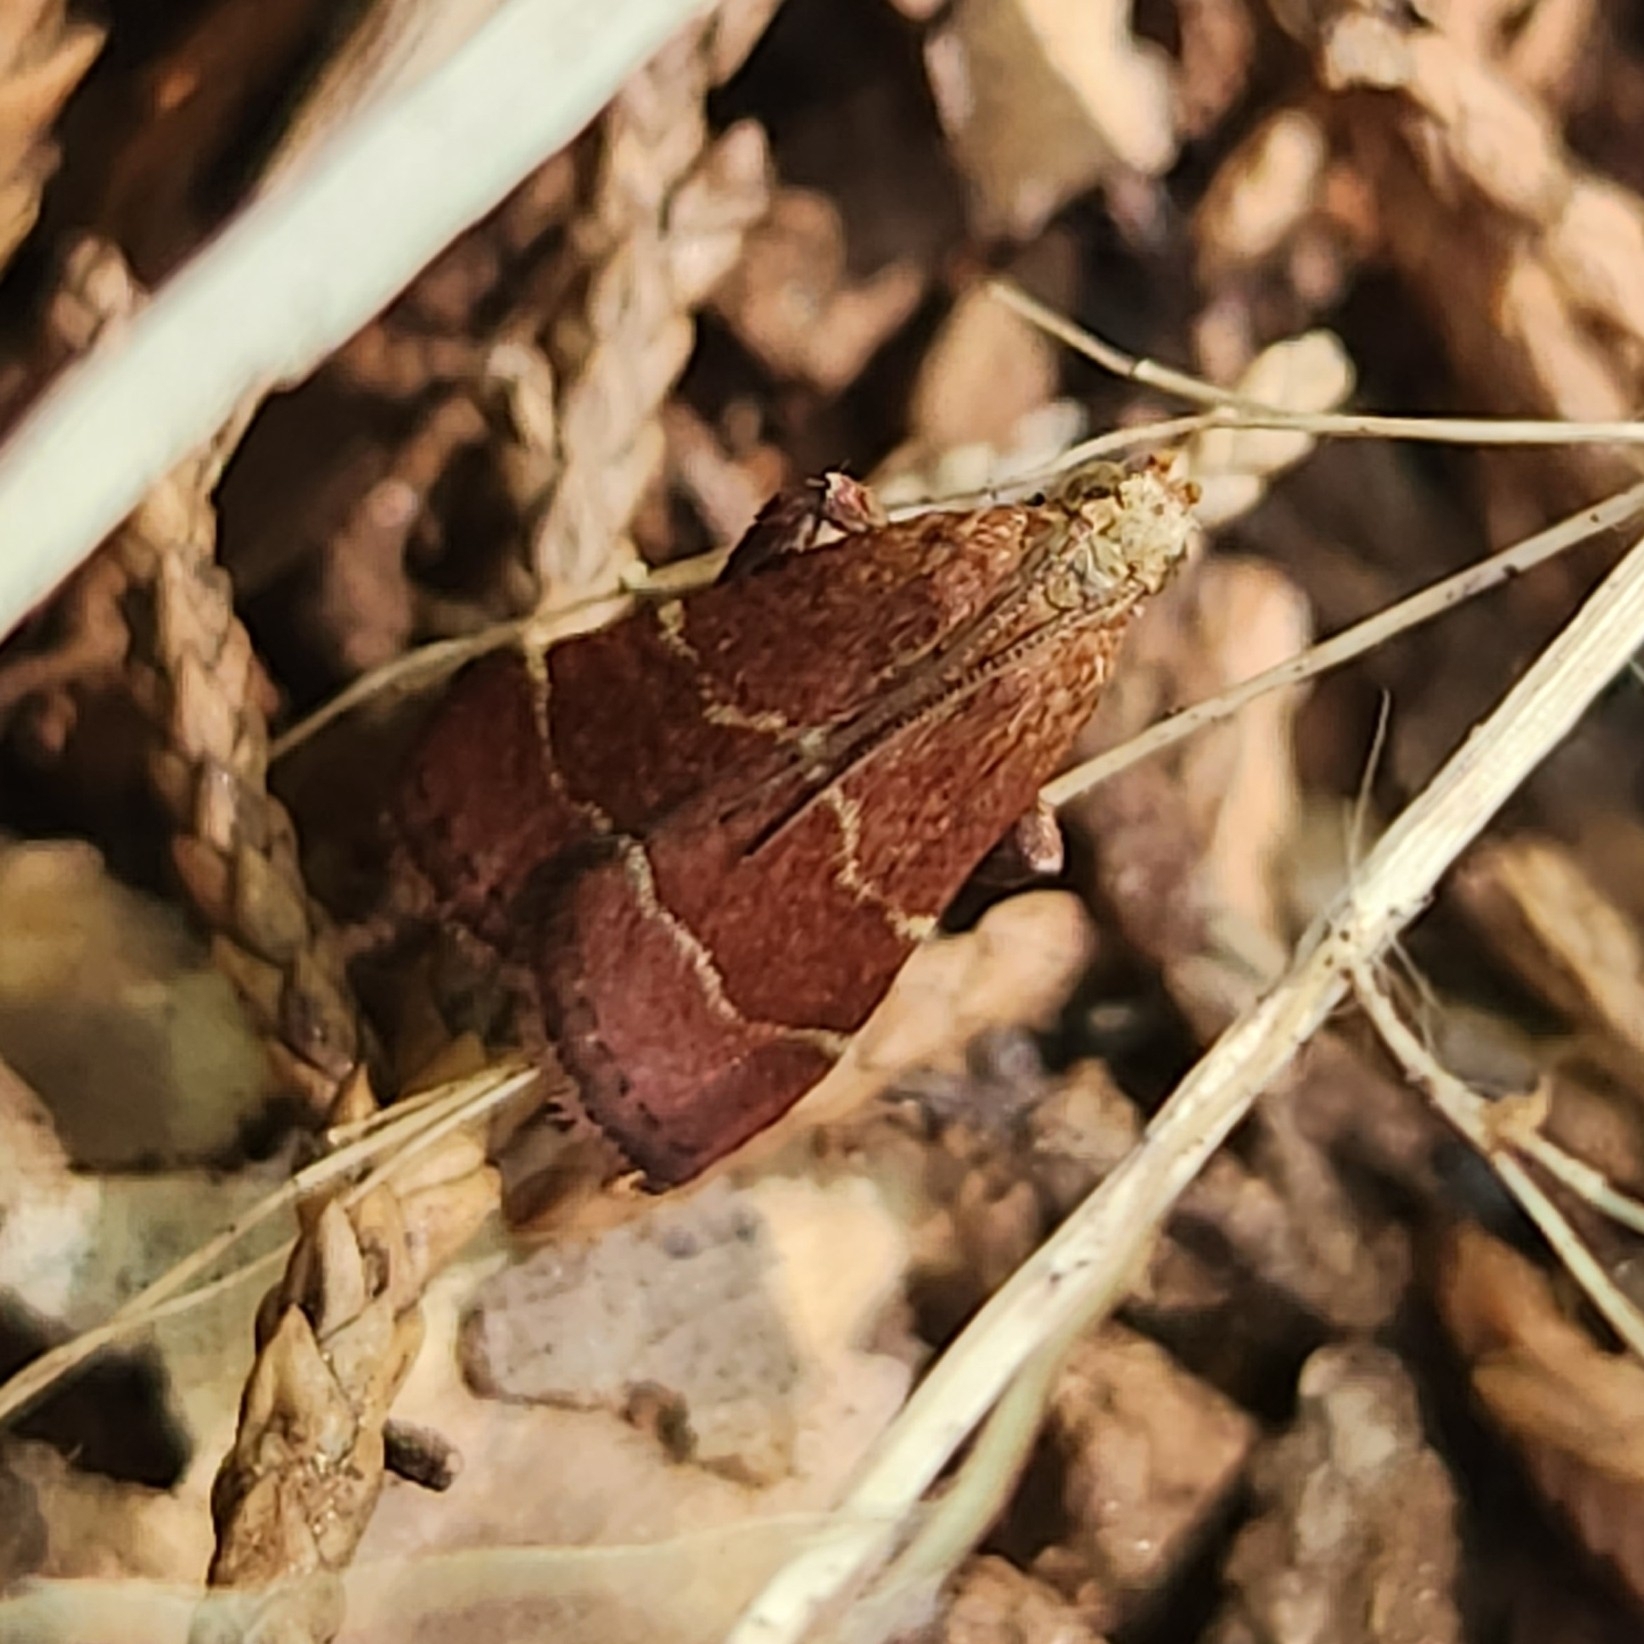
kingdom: Animalia
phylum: Arthropoda
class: Insecta
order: Lepidoptera
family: Pyralidae
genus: Arta
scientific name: Arta statalis
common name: Posturing arta moth
